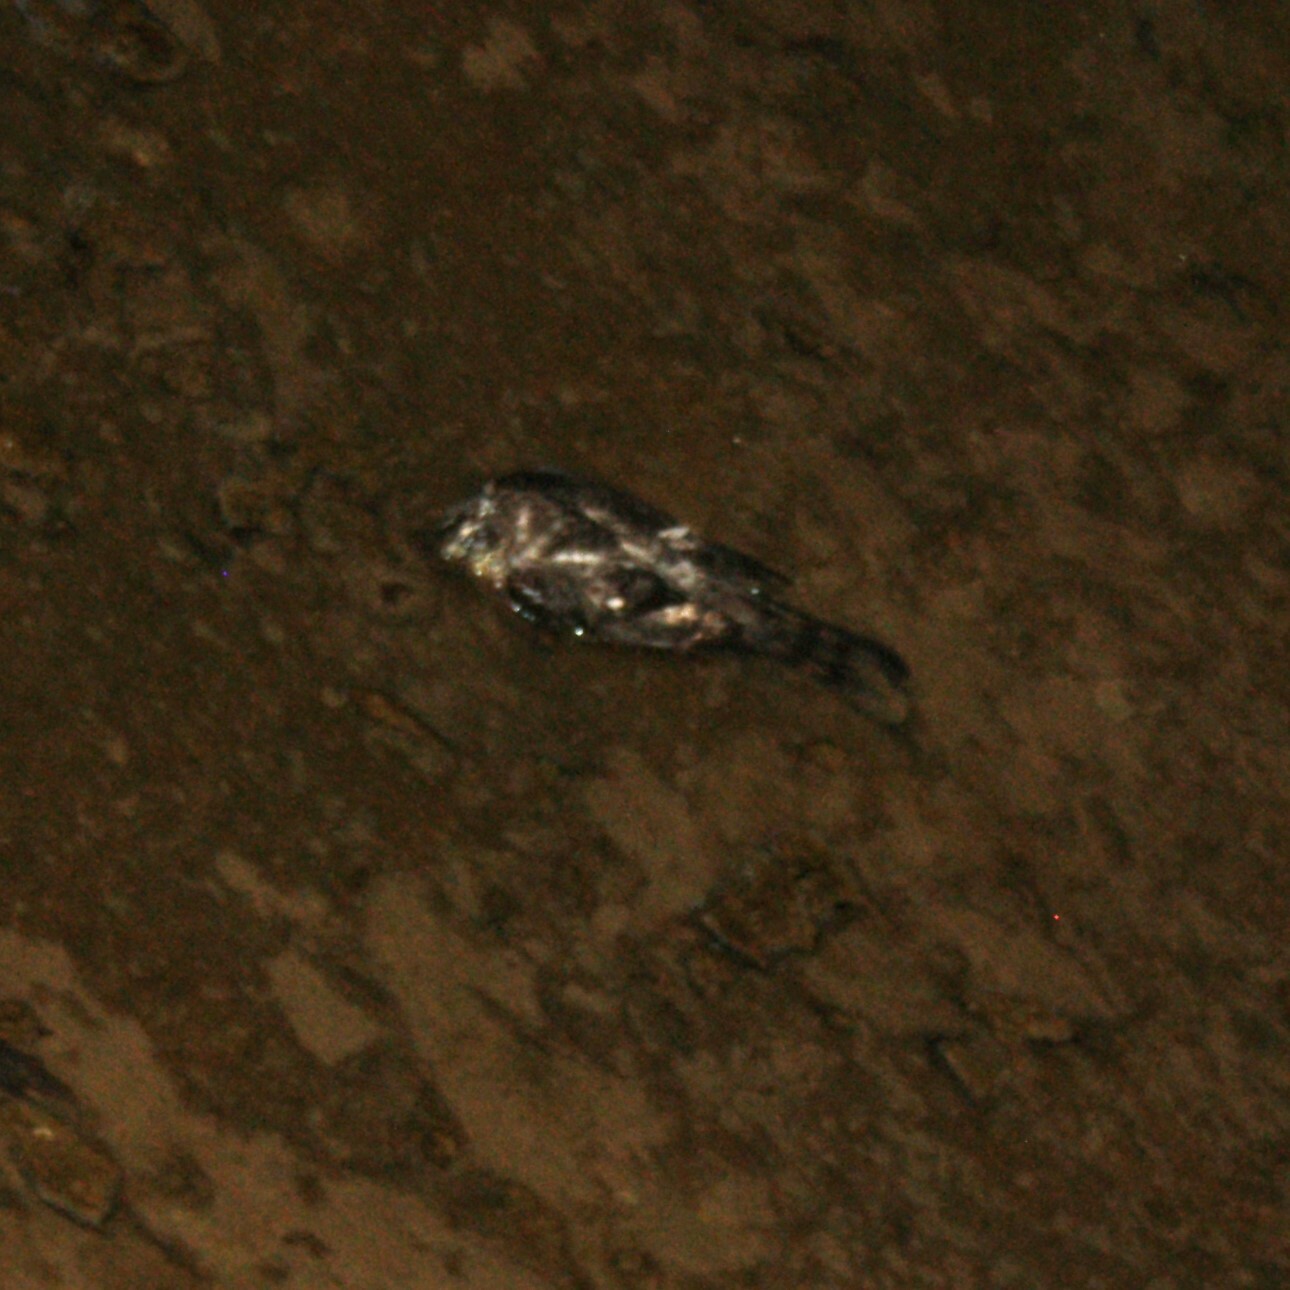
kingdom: Animalia
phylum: Chordata
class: Aves
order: Accipitriformes
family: Accipitridae
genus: Accipiter
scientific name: Accipiter nisus
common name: Eurasian sparrowhawk
